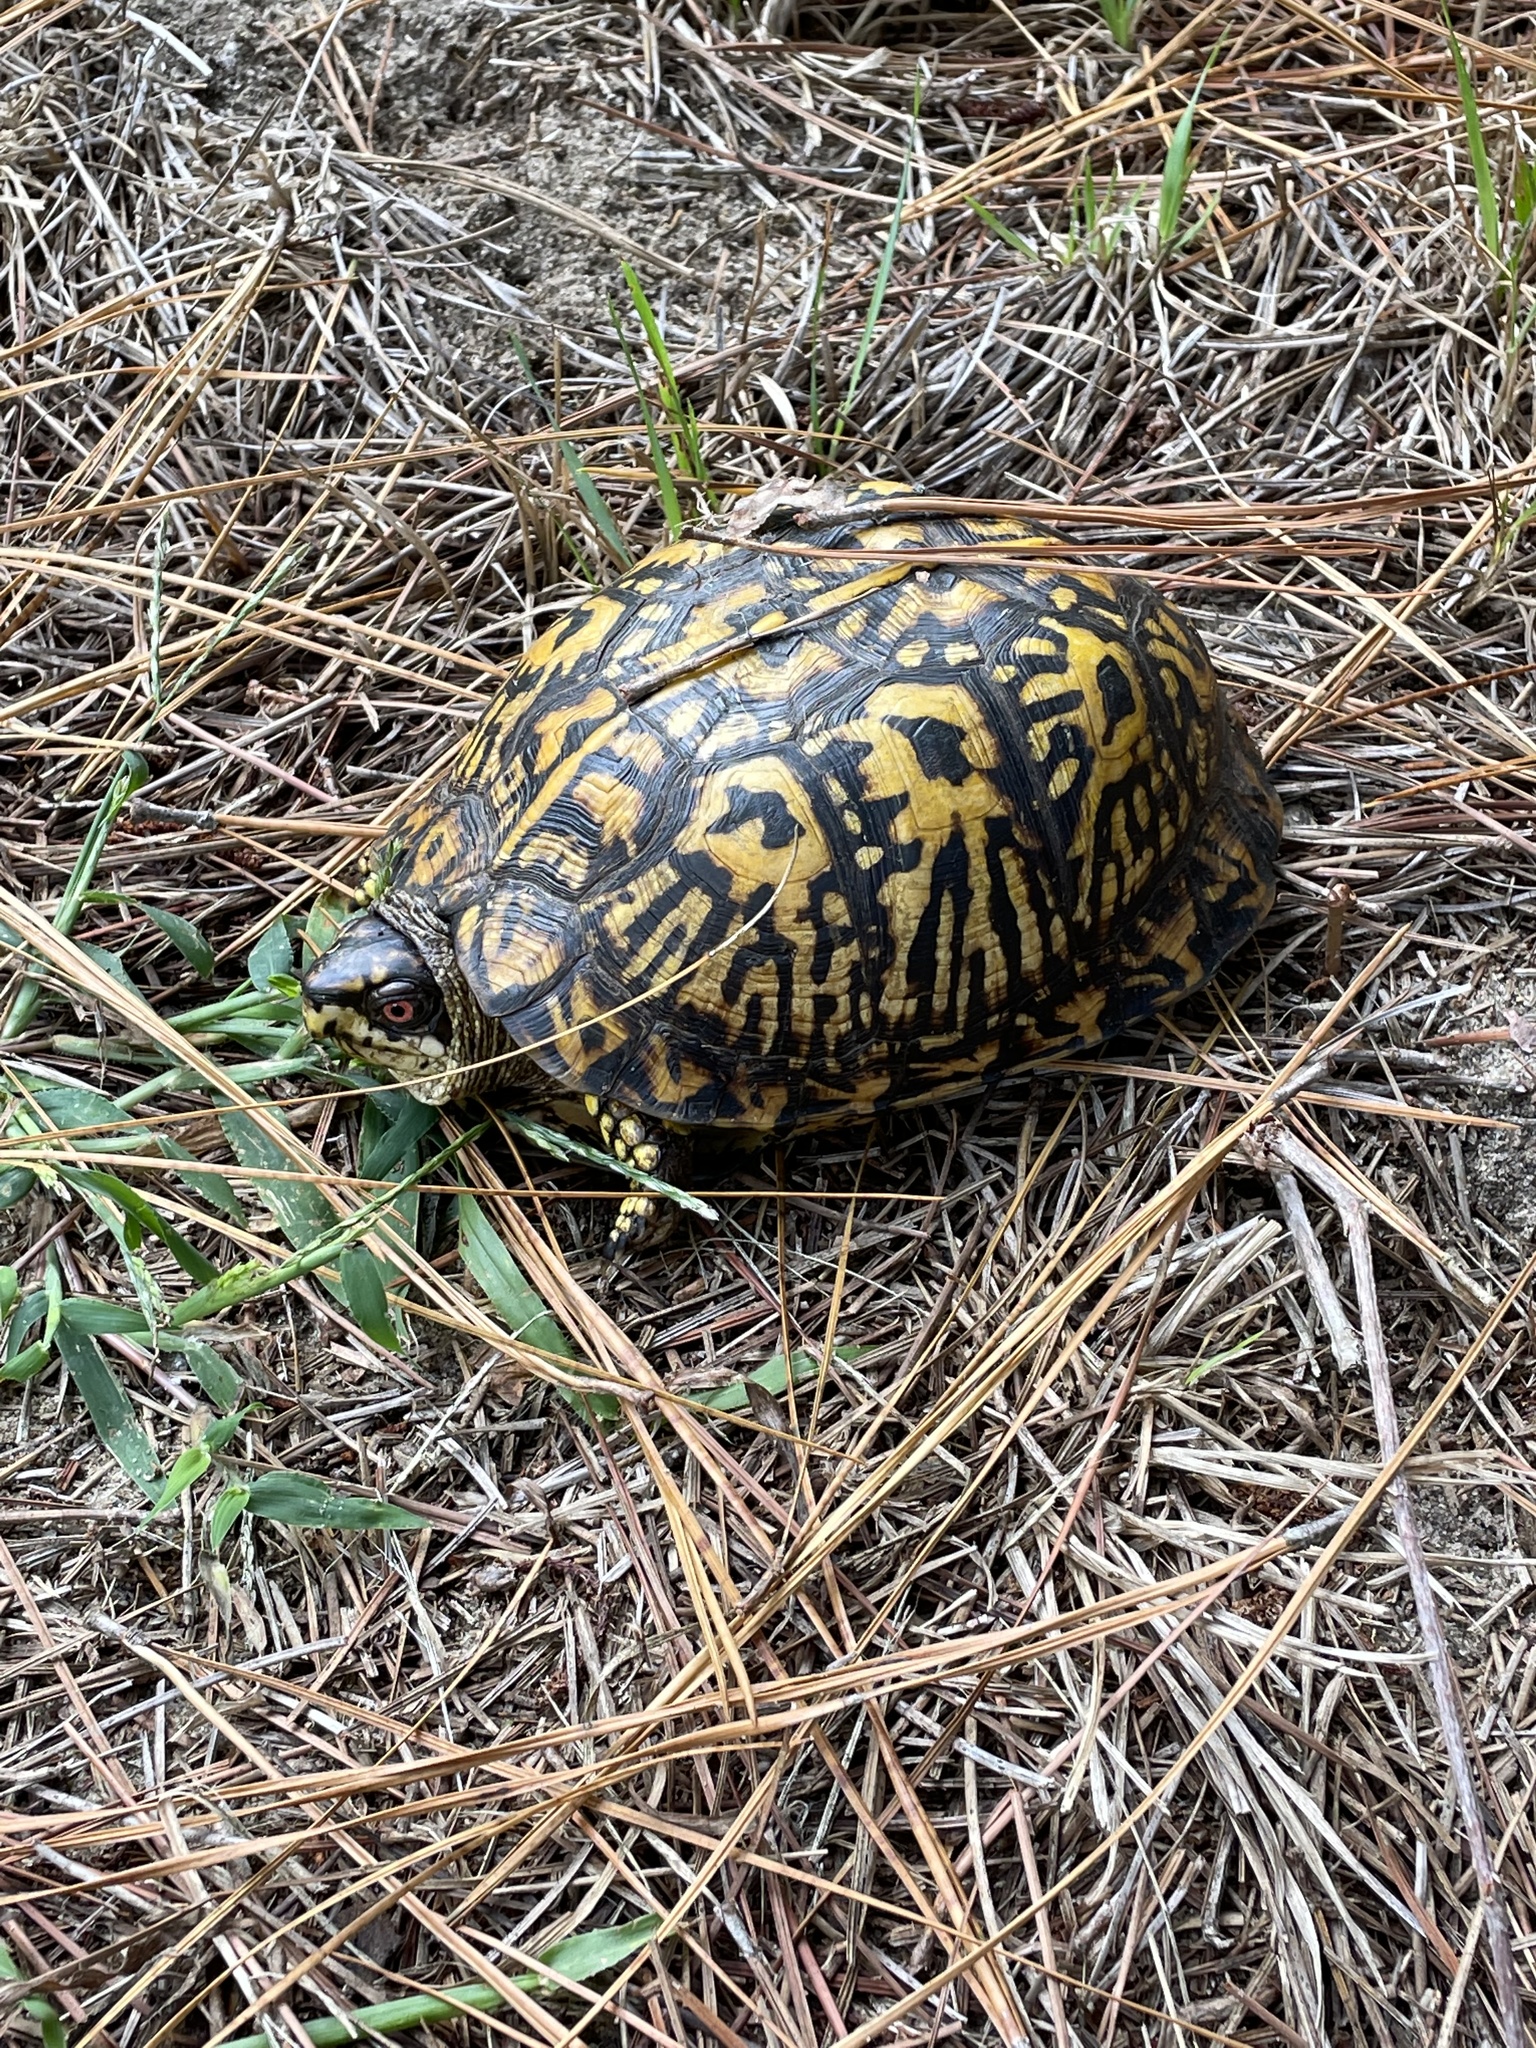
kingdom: Animalia
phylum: Chordata
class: Testudines
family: Emydidae
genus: Terrapene
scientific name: Terrapene carolina
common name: Common box turtle
